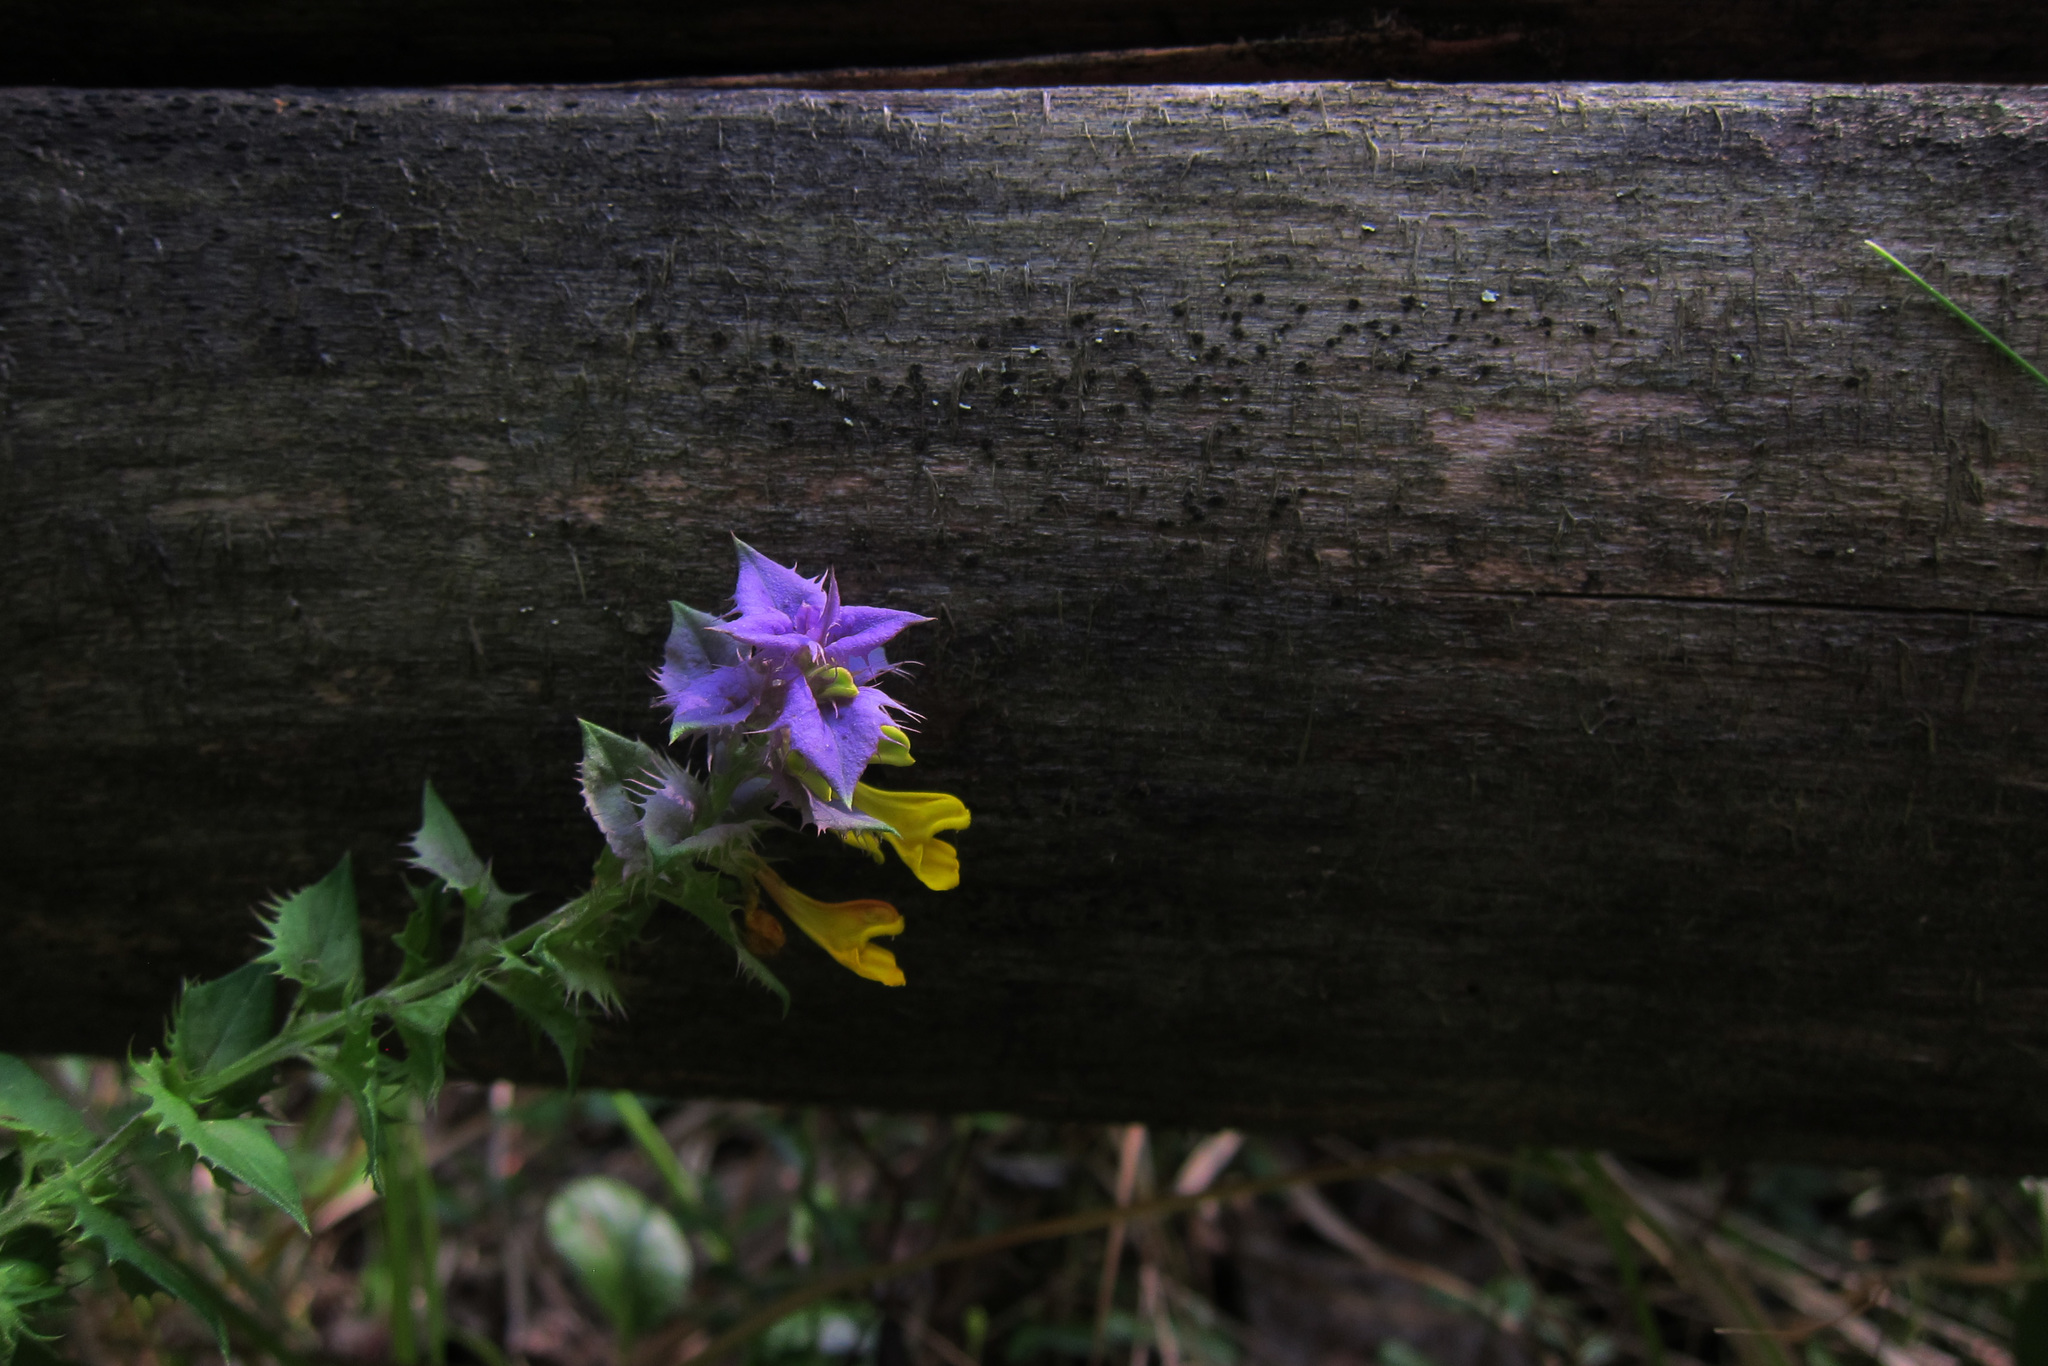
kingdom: Plantae
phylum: Tracheophyta
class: Magnoliopsida
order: Lamiales
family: Orobanchaceae
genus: Melampyrum
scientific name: Melampyrum nemorosum
